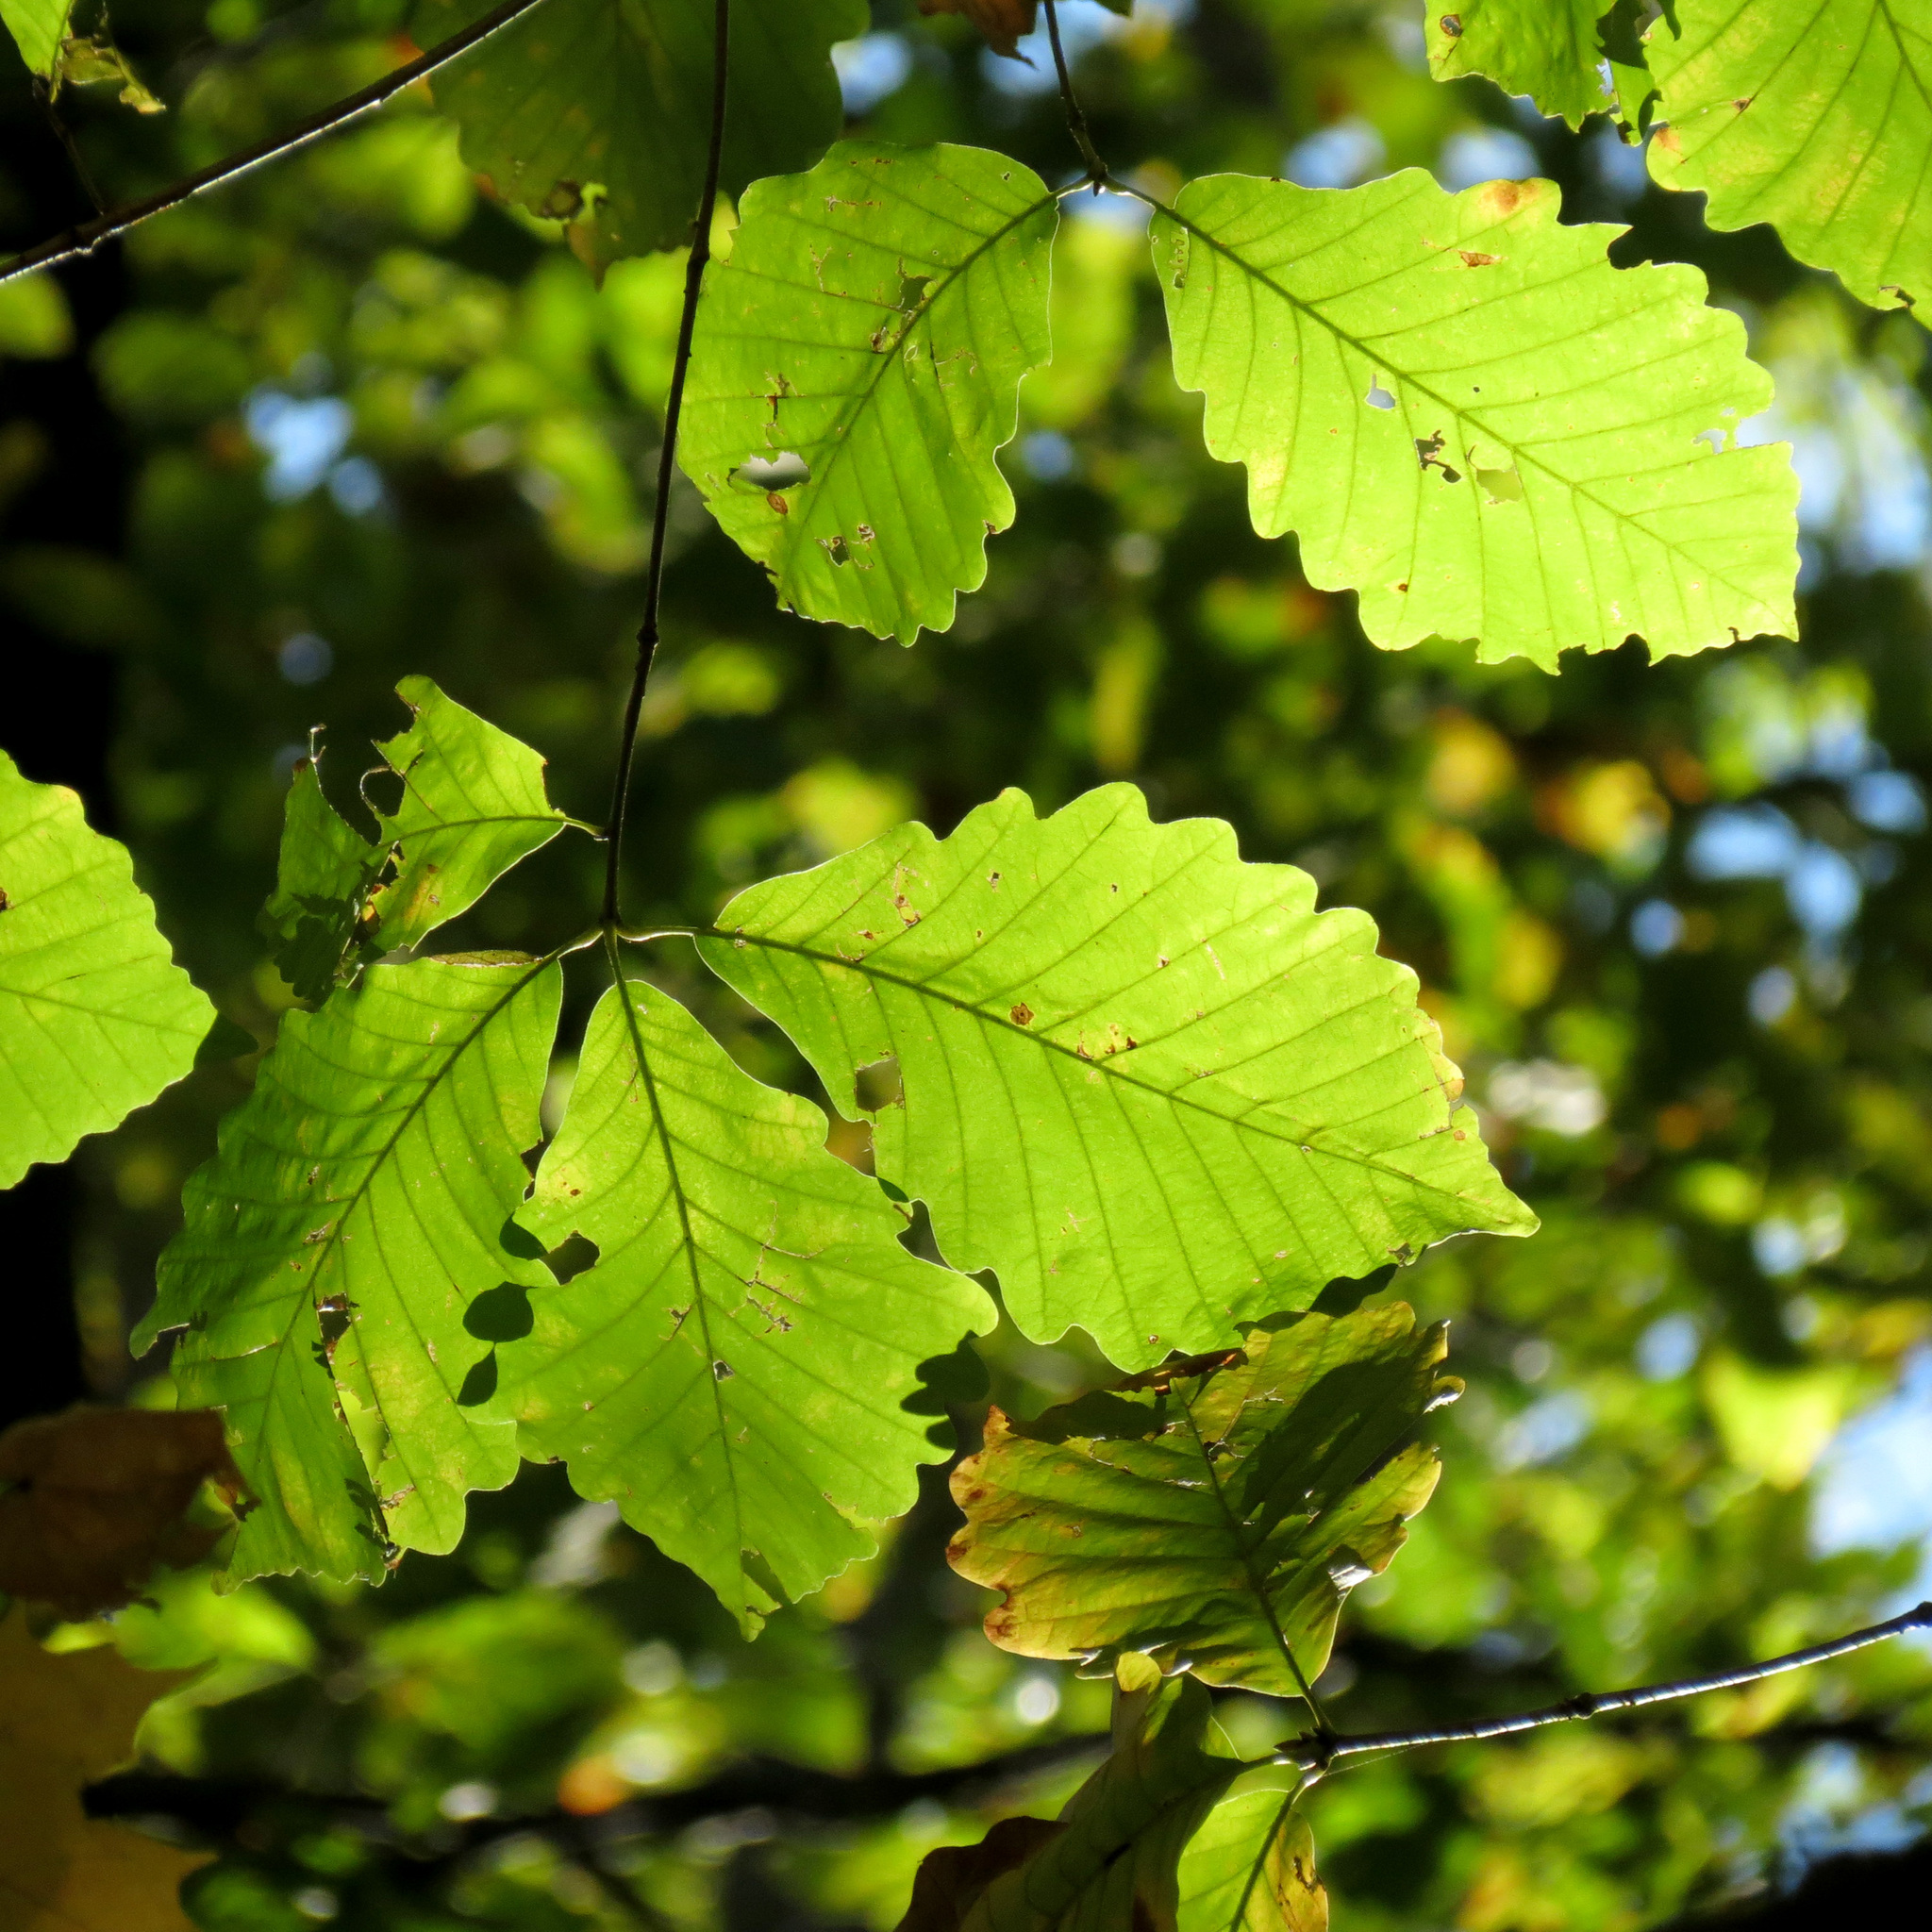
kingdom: Plantae
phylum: Tracheophyta
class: Magnoliopsida
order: Fagales
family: Fagaceae
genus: Quercus
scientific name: Quercus montana
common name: Chestnut oak
